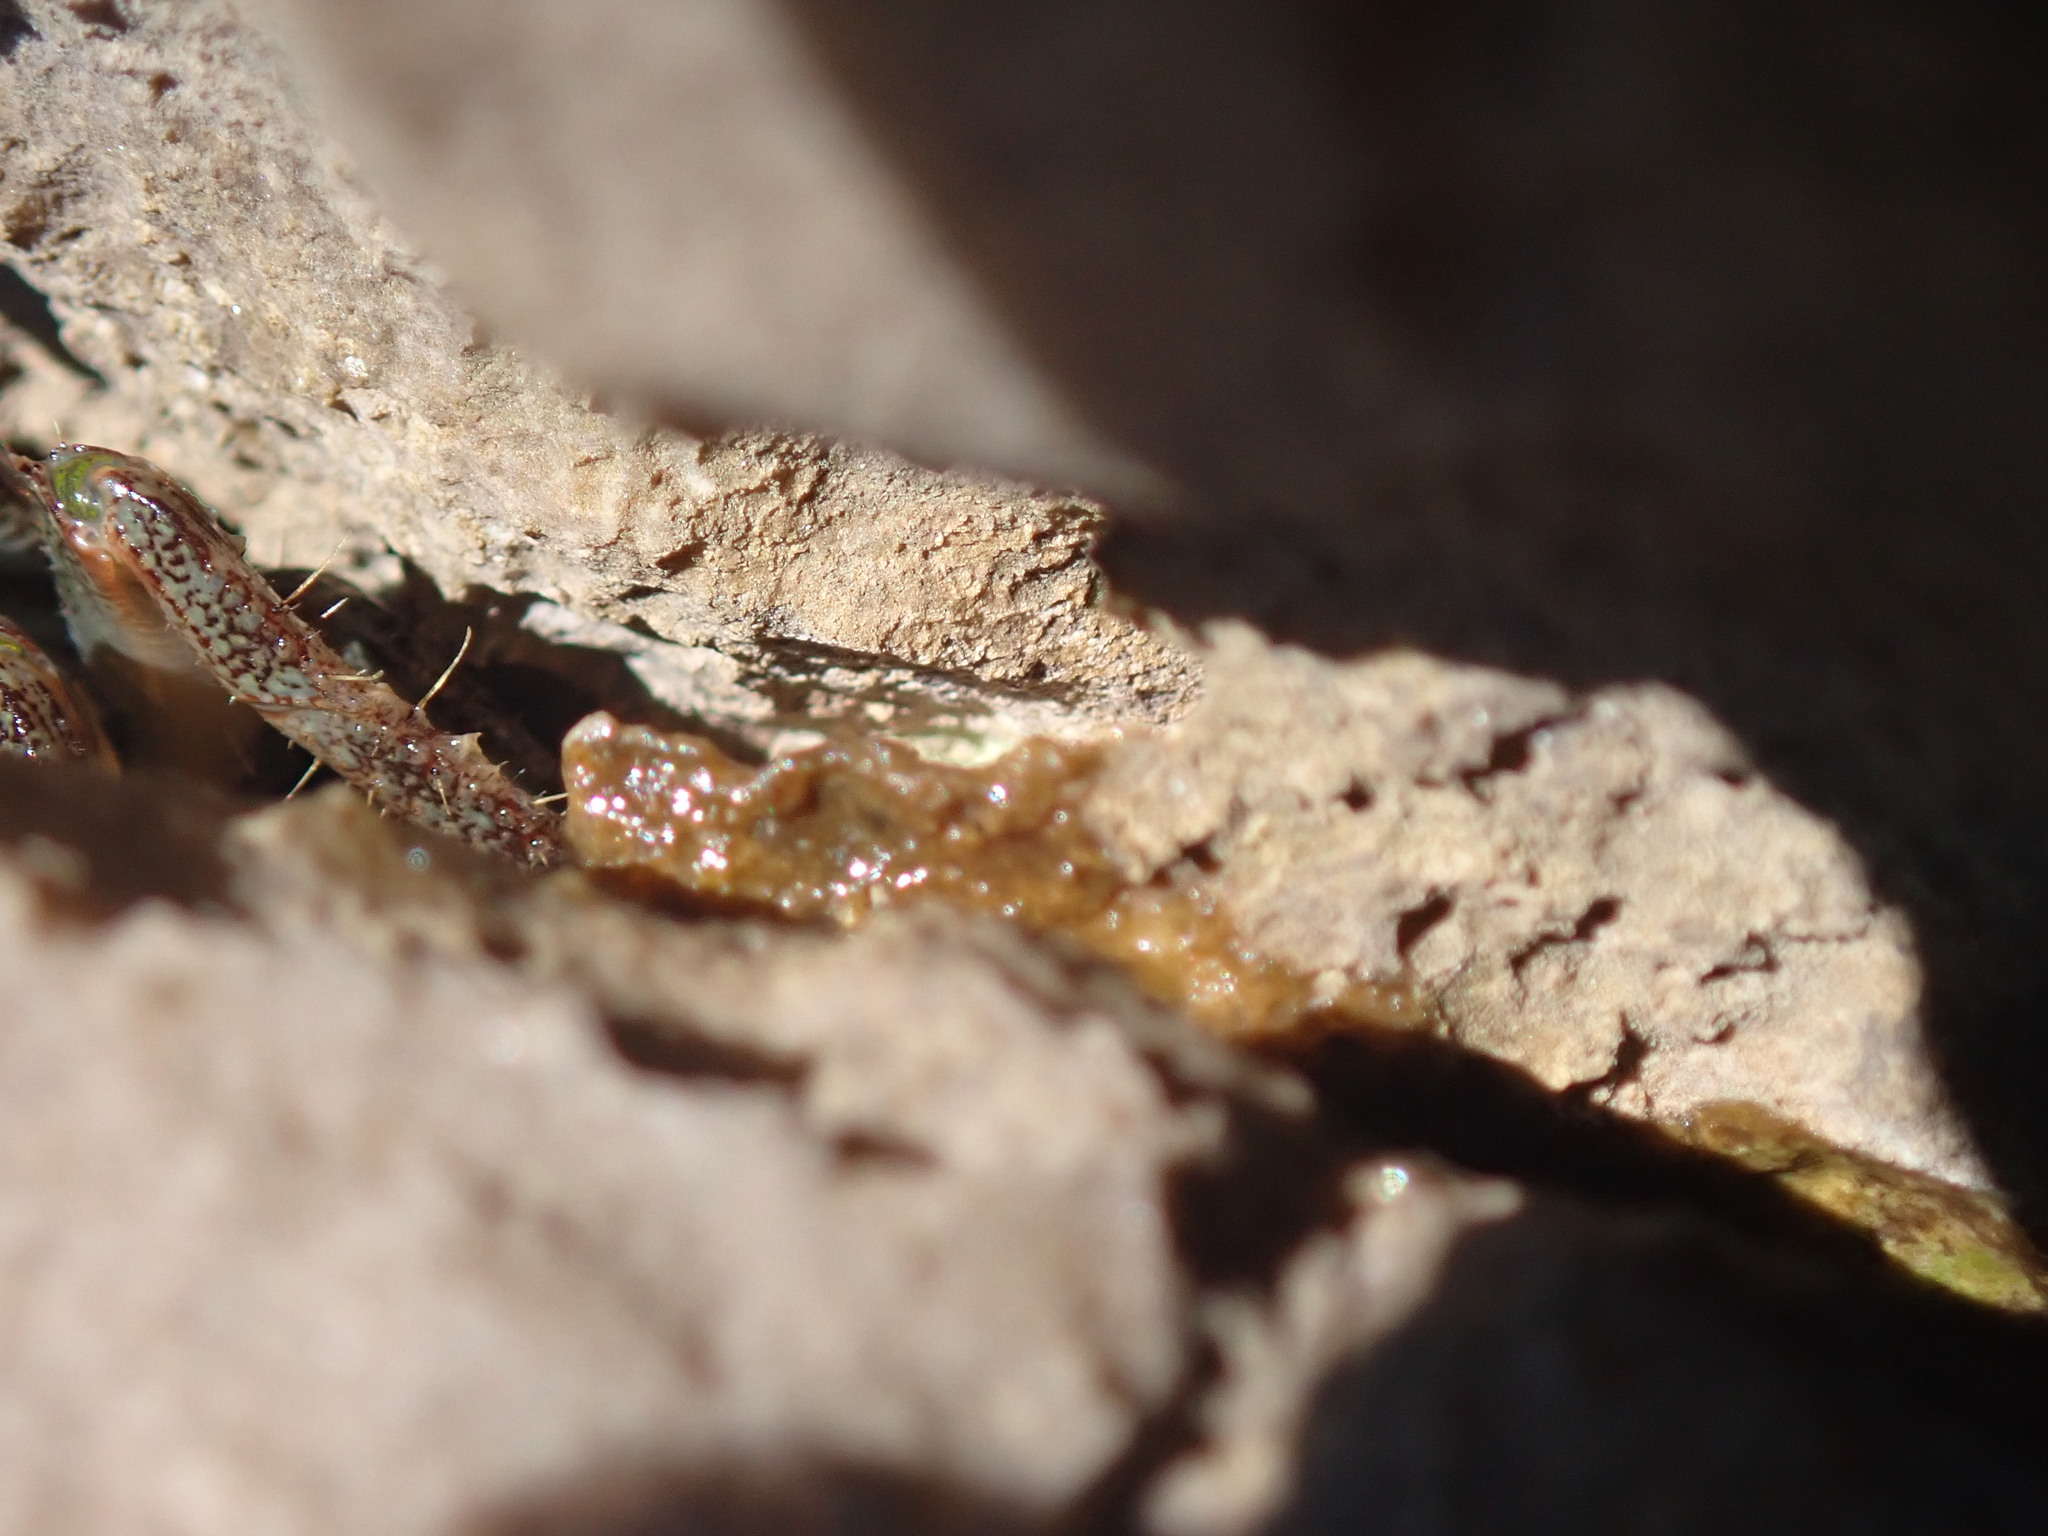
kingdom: Animalia
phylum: Arthropoda
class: Malacostraca
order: Decapoda
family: Grapsidae
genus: Pachygrapsus
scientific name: Pachygrapsus marmoratus
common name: Marbled rock crab
